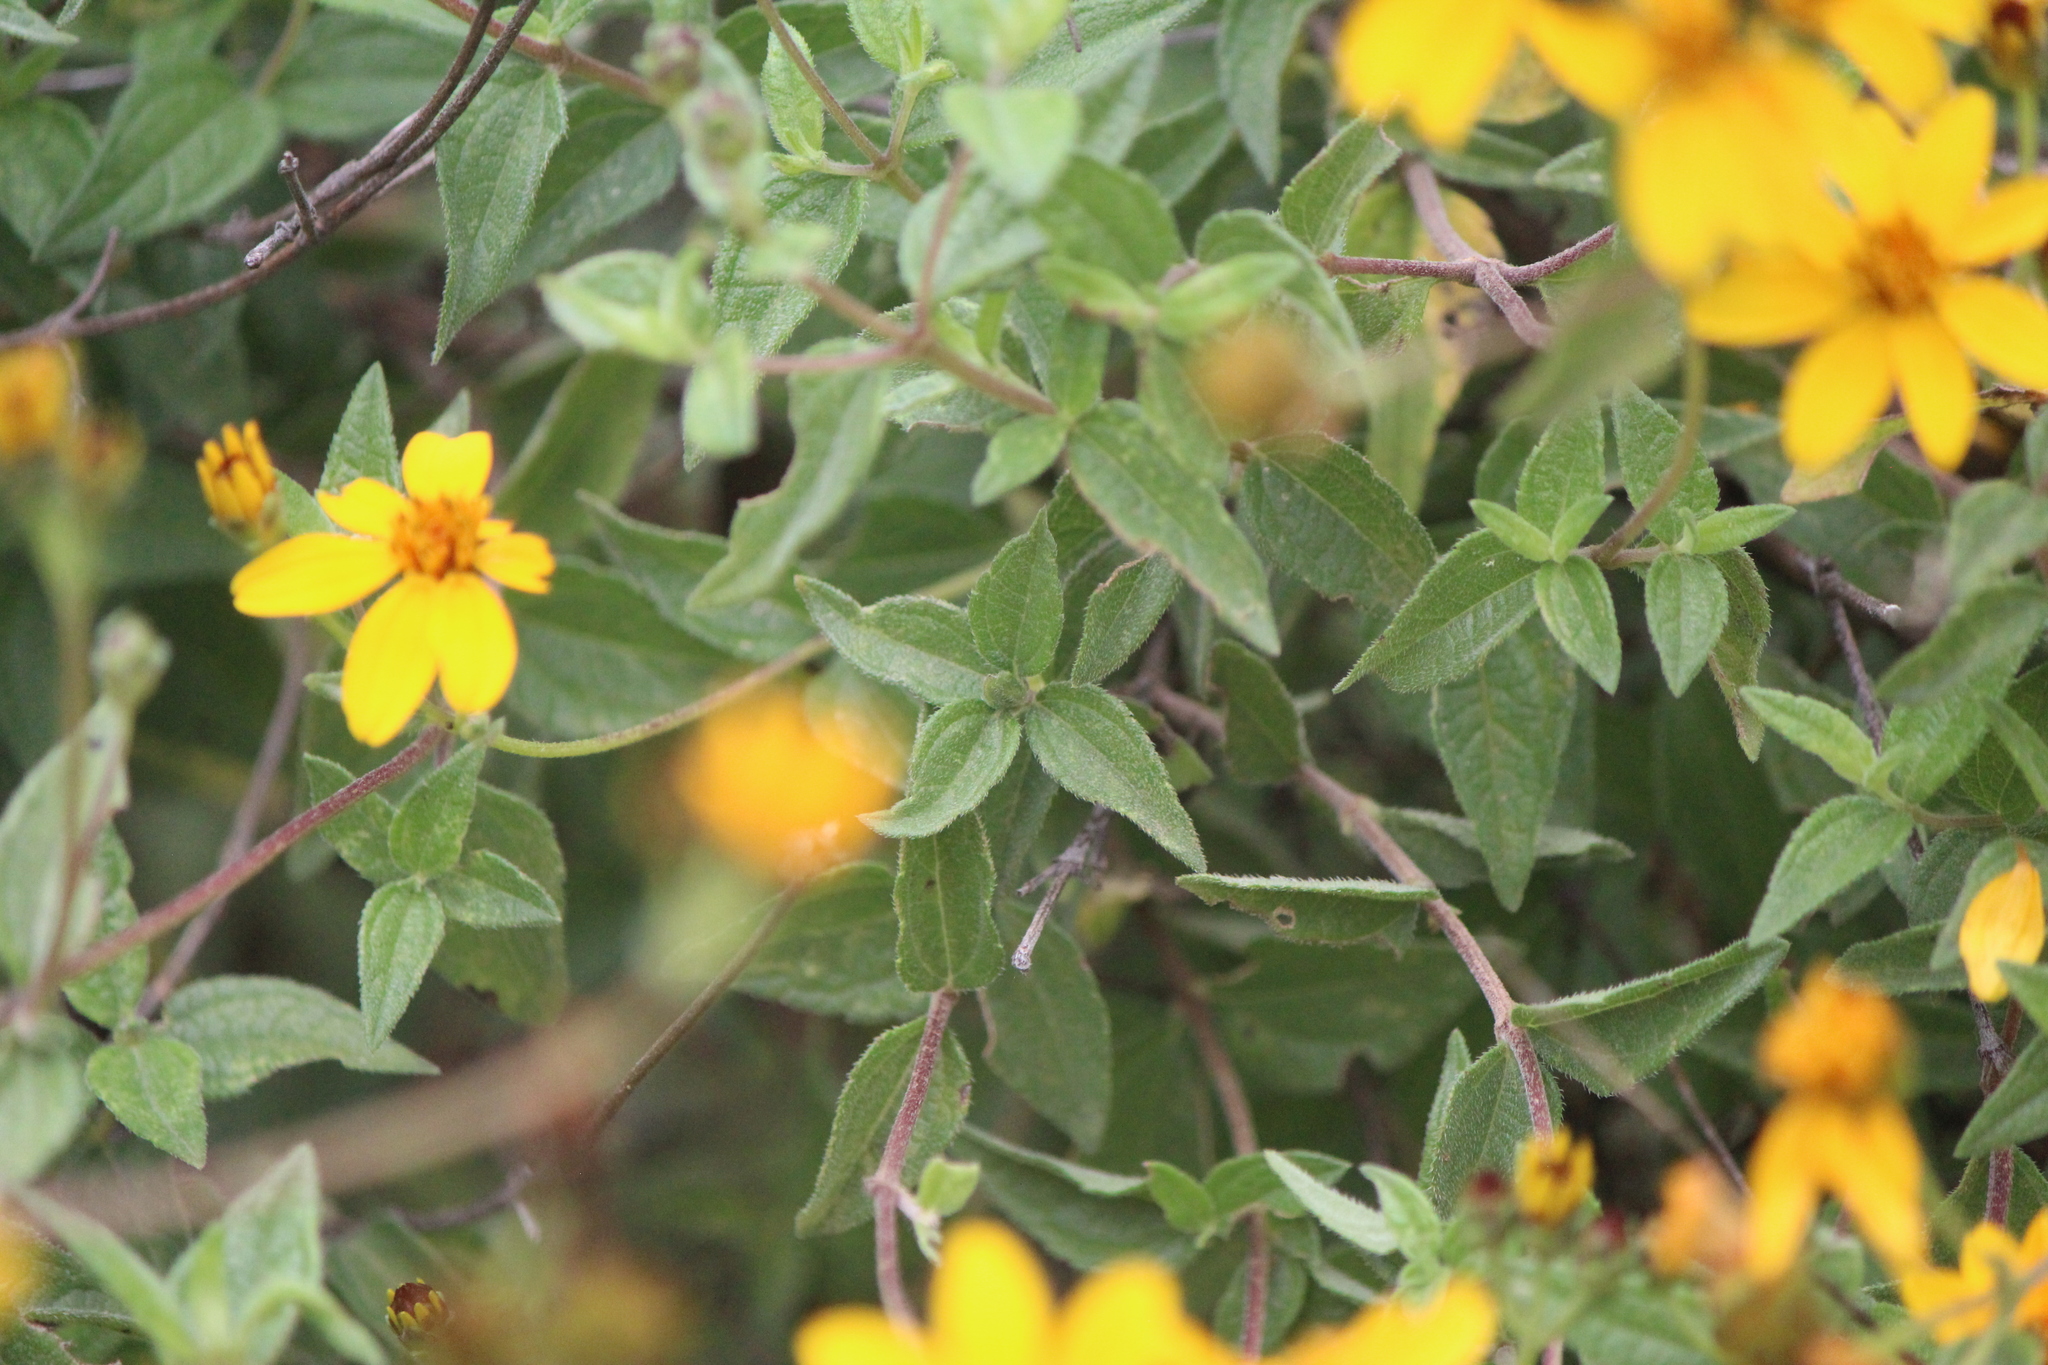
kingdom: Plantae
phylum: Tracheophyta
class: Magnoliopsida
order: Asterales
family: Asteraceae
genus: Perymenium
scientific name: Perymenium mendezii
